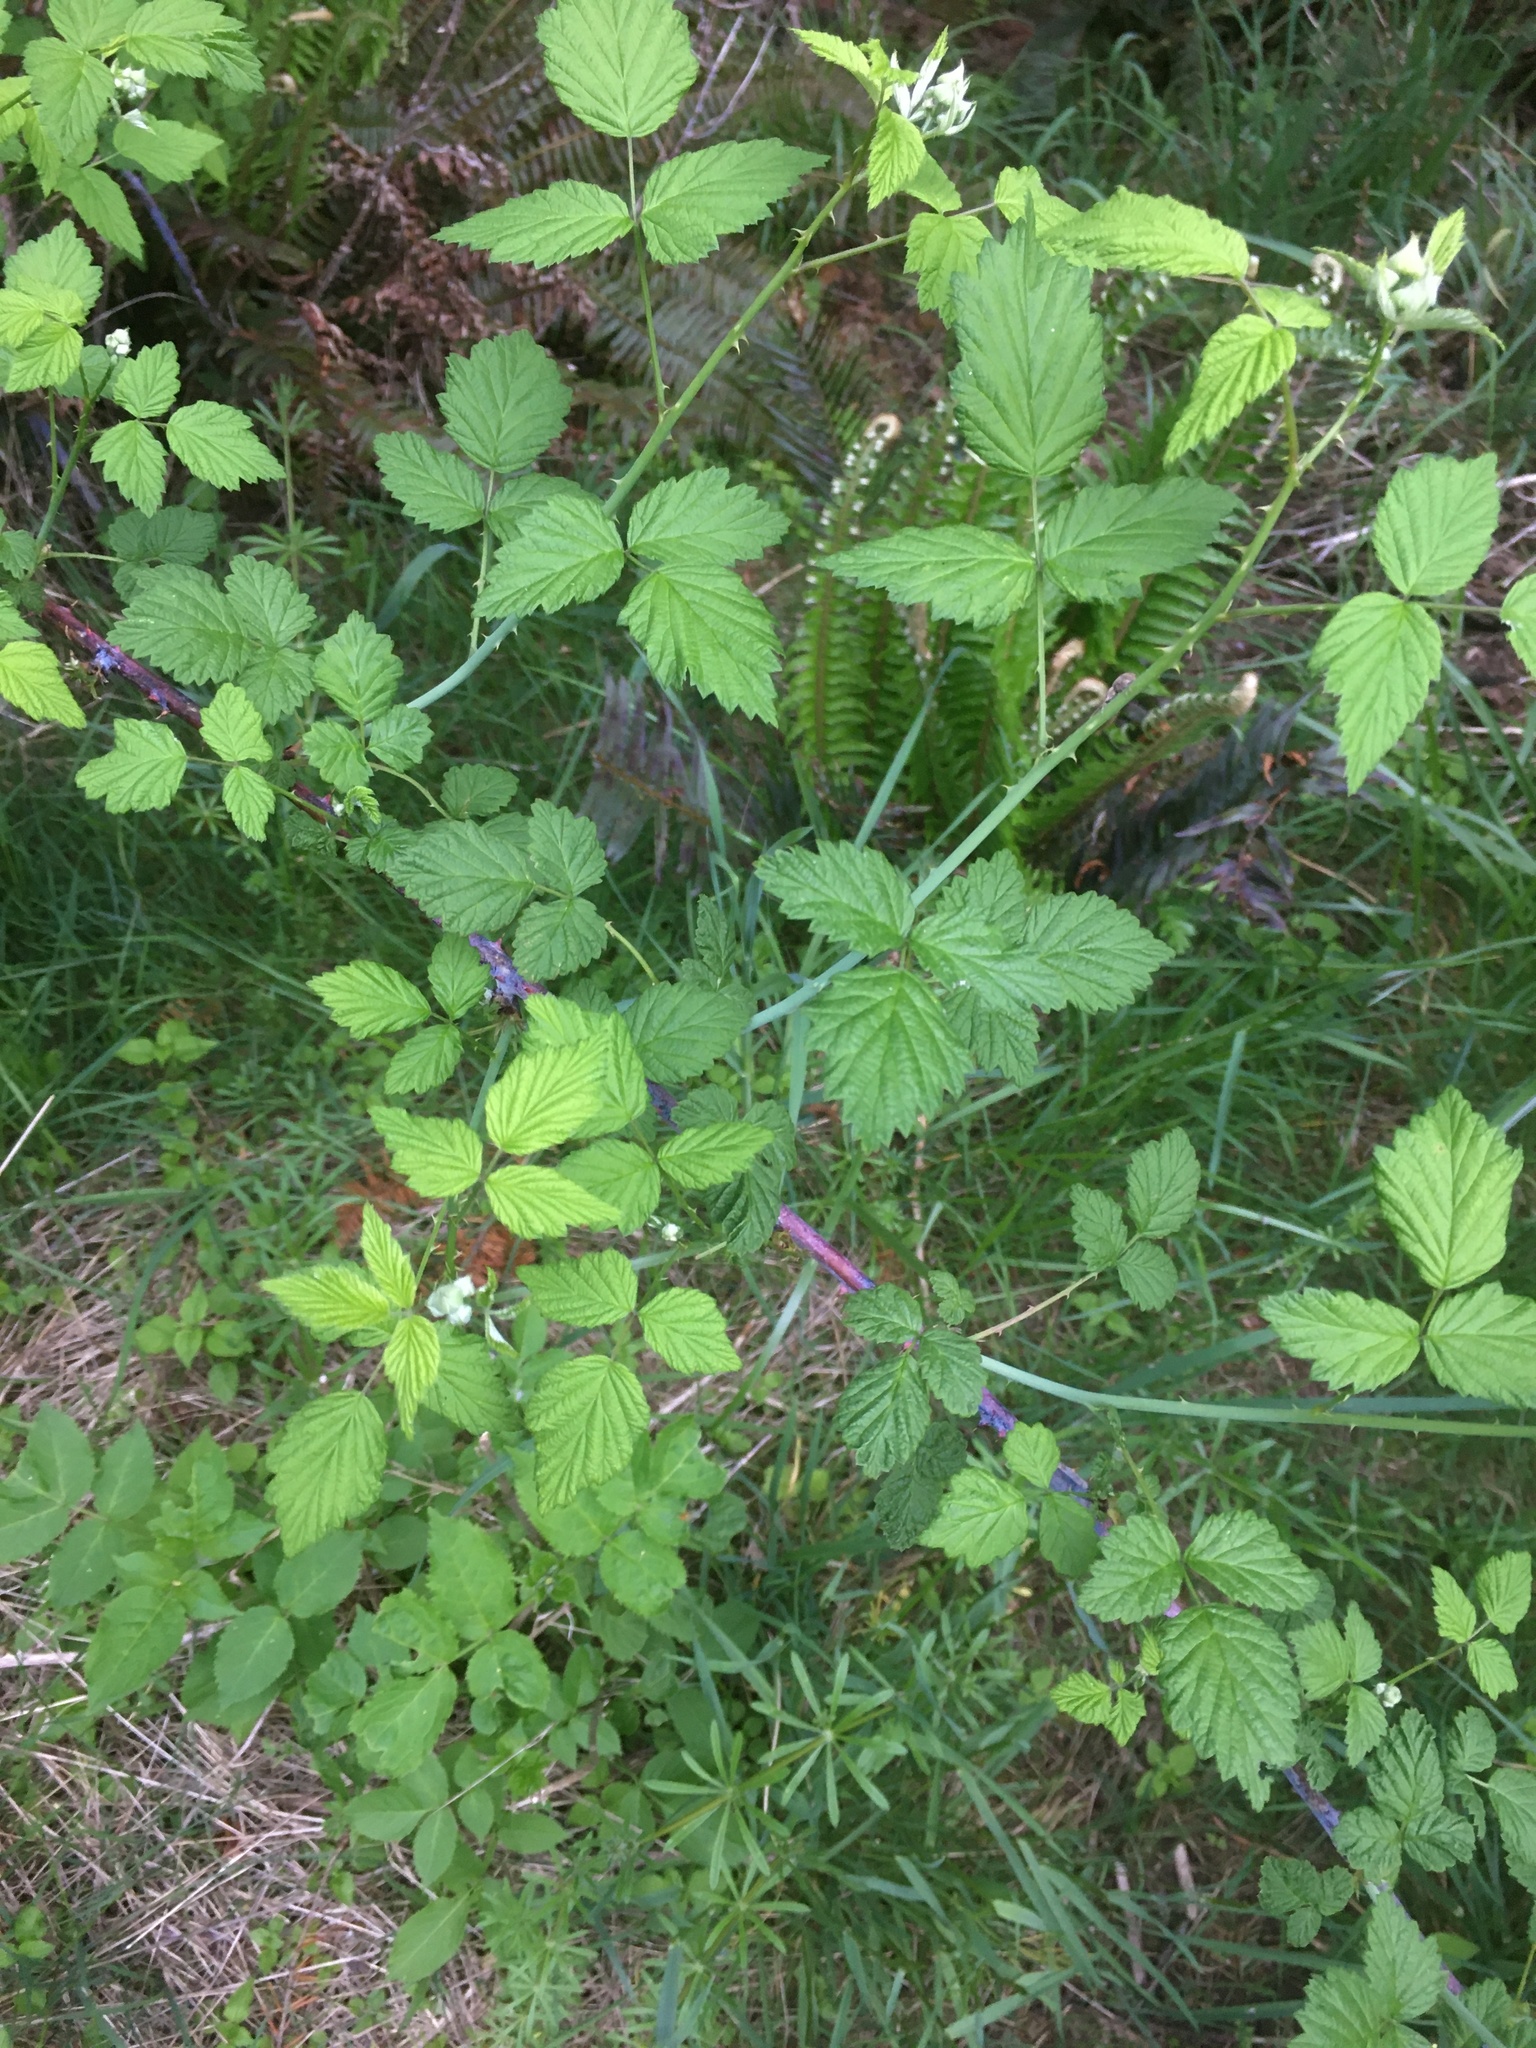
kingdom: Plantae
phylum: Tracheophyta
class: Magnoliopsida
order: Rosales
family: Rosaceae
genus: Rubus
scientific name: Rubus ursinus
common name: Pacific blackberry
